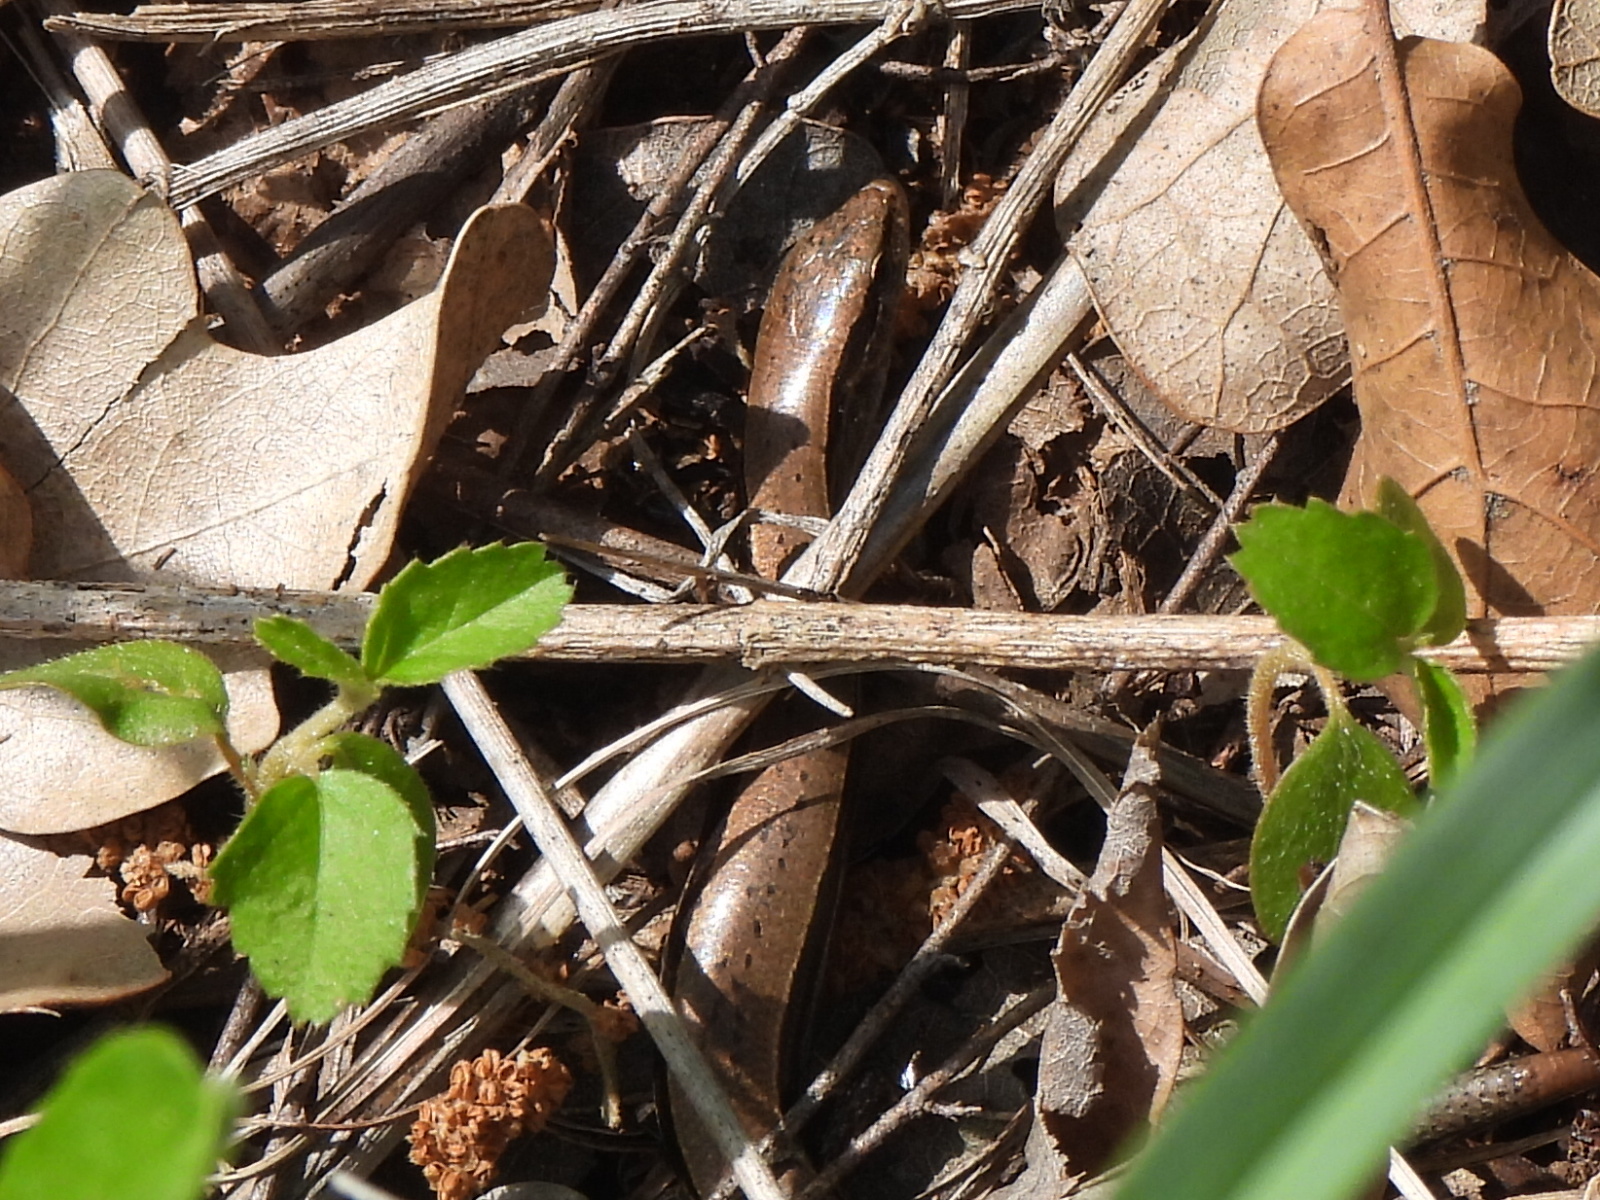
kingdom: Animalia
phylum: Chordata
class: Squamata
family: Scincidae
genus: Scincella
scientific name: Scincella lateralis
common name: Ground skink
